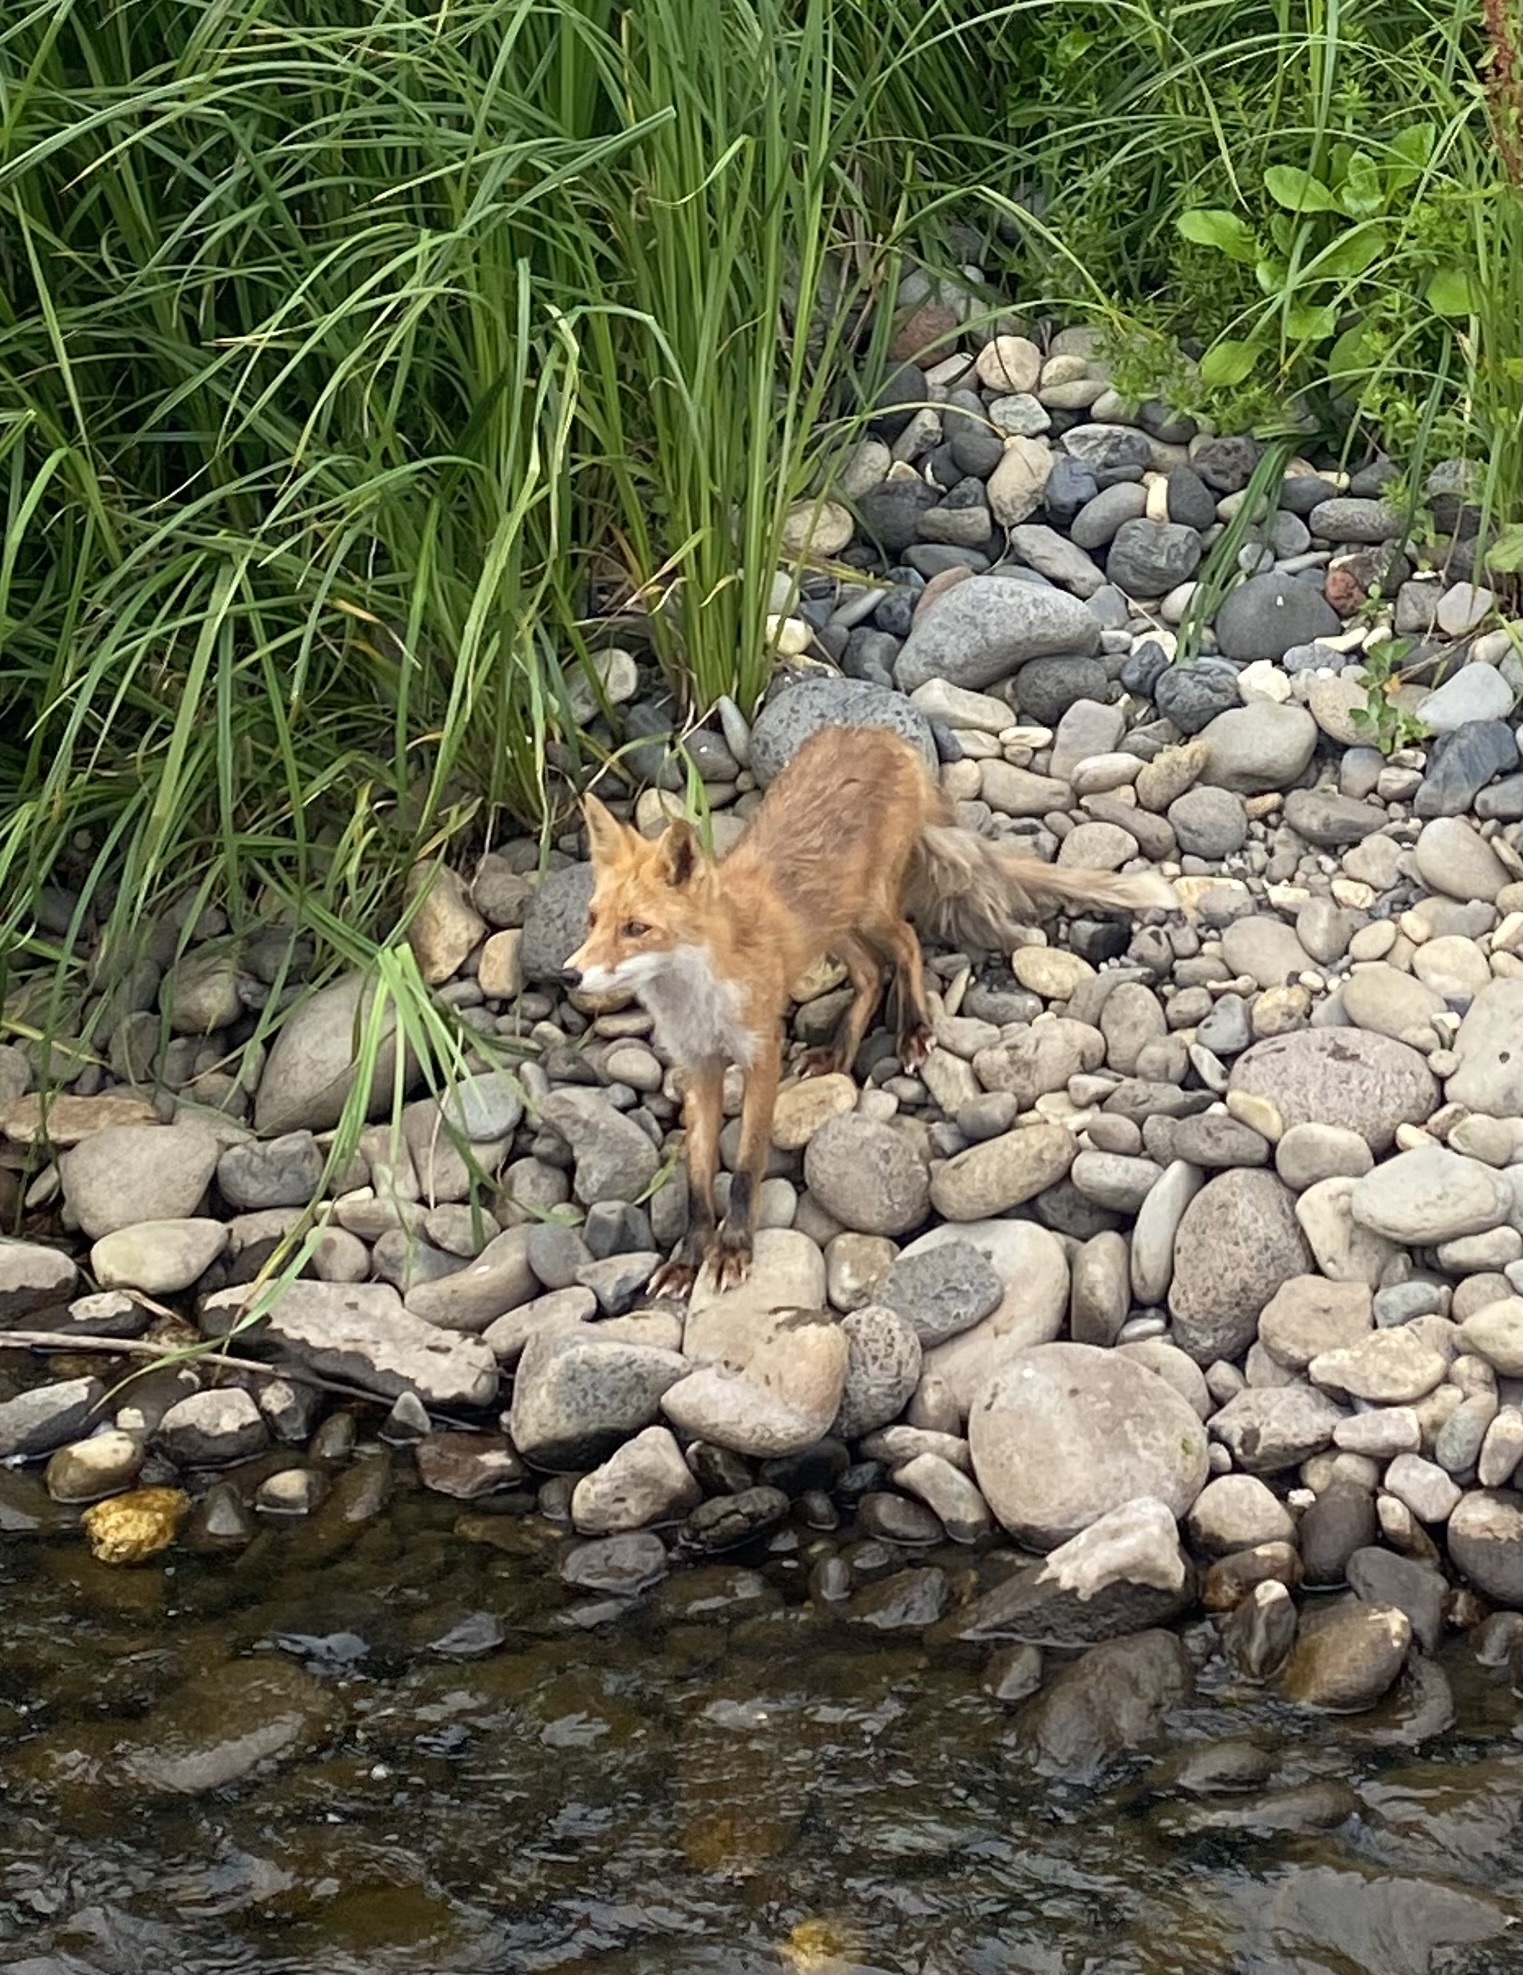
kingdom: Animalia
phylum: Chordata
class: Mammalia
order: Carnivora
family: Canidae
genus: Vulpes
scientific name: Vulpes vulpes
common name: Red fox
